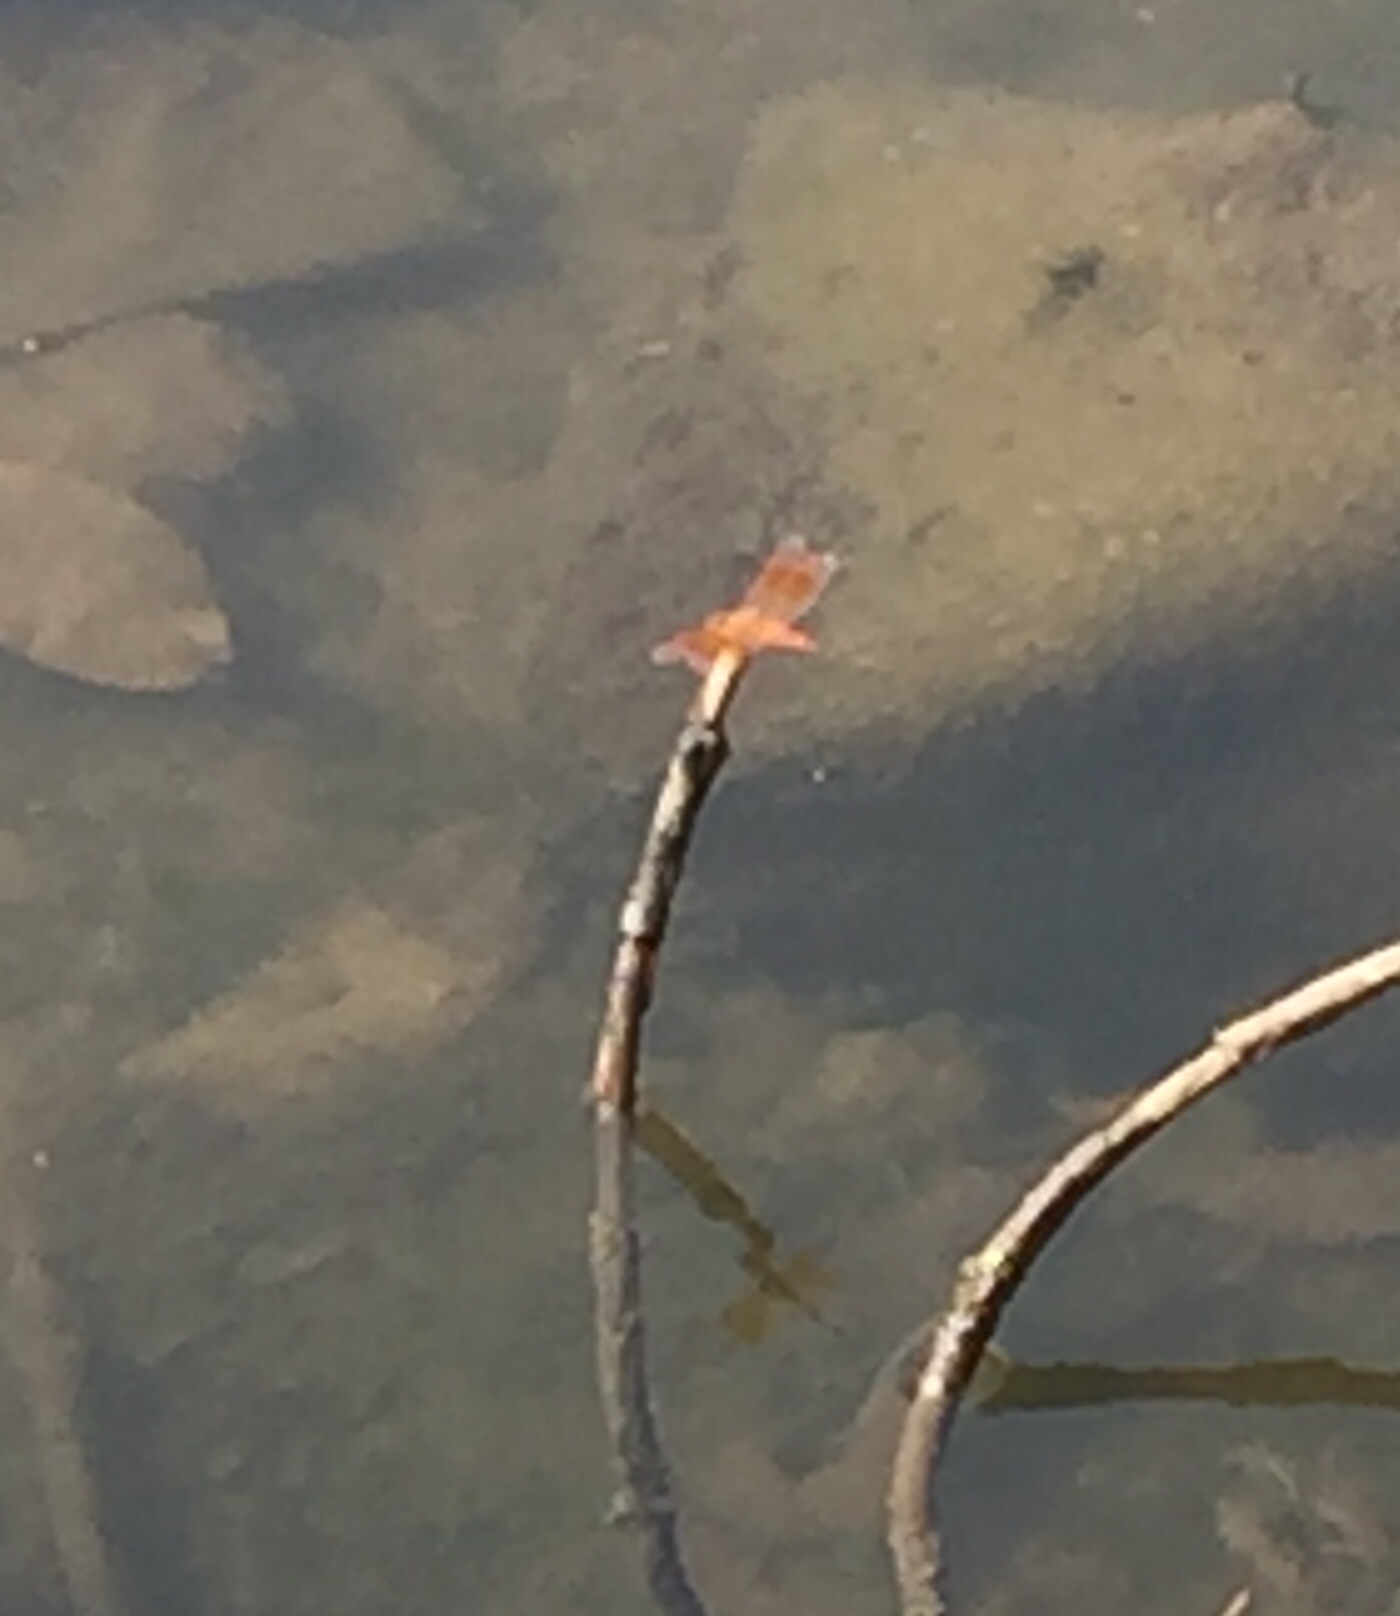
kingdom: Animalia
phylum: Arthropoda
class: Insecta
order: Odonata
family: Libellulidae
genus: Brachythemis
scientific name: Brachythemis contaminata
